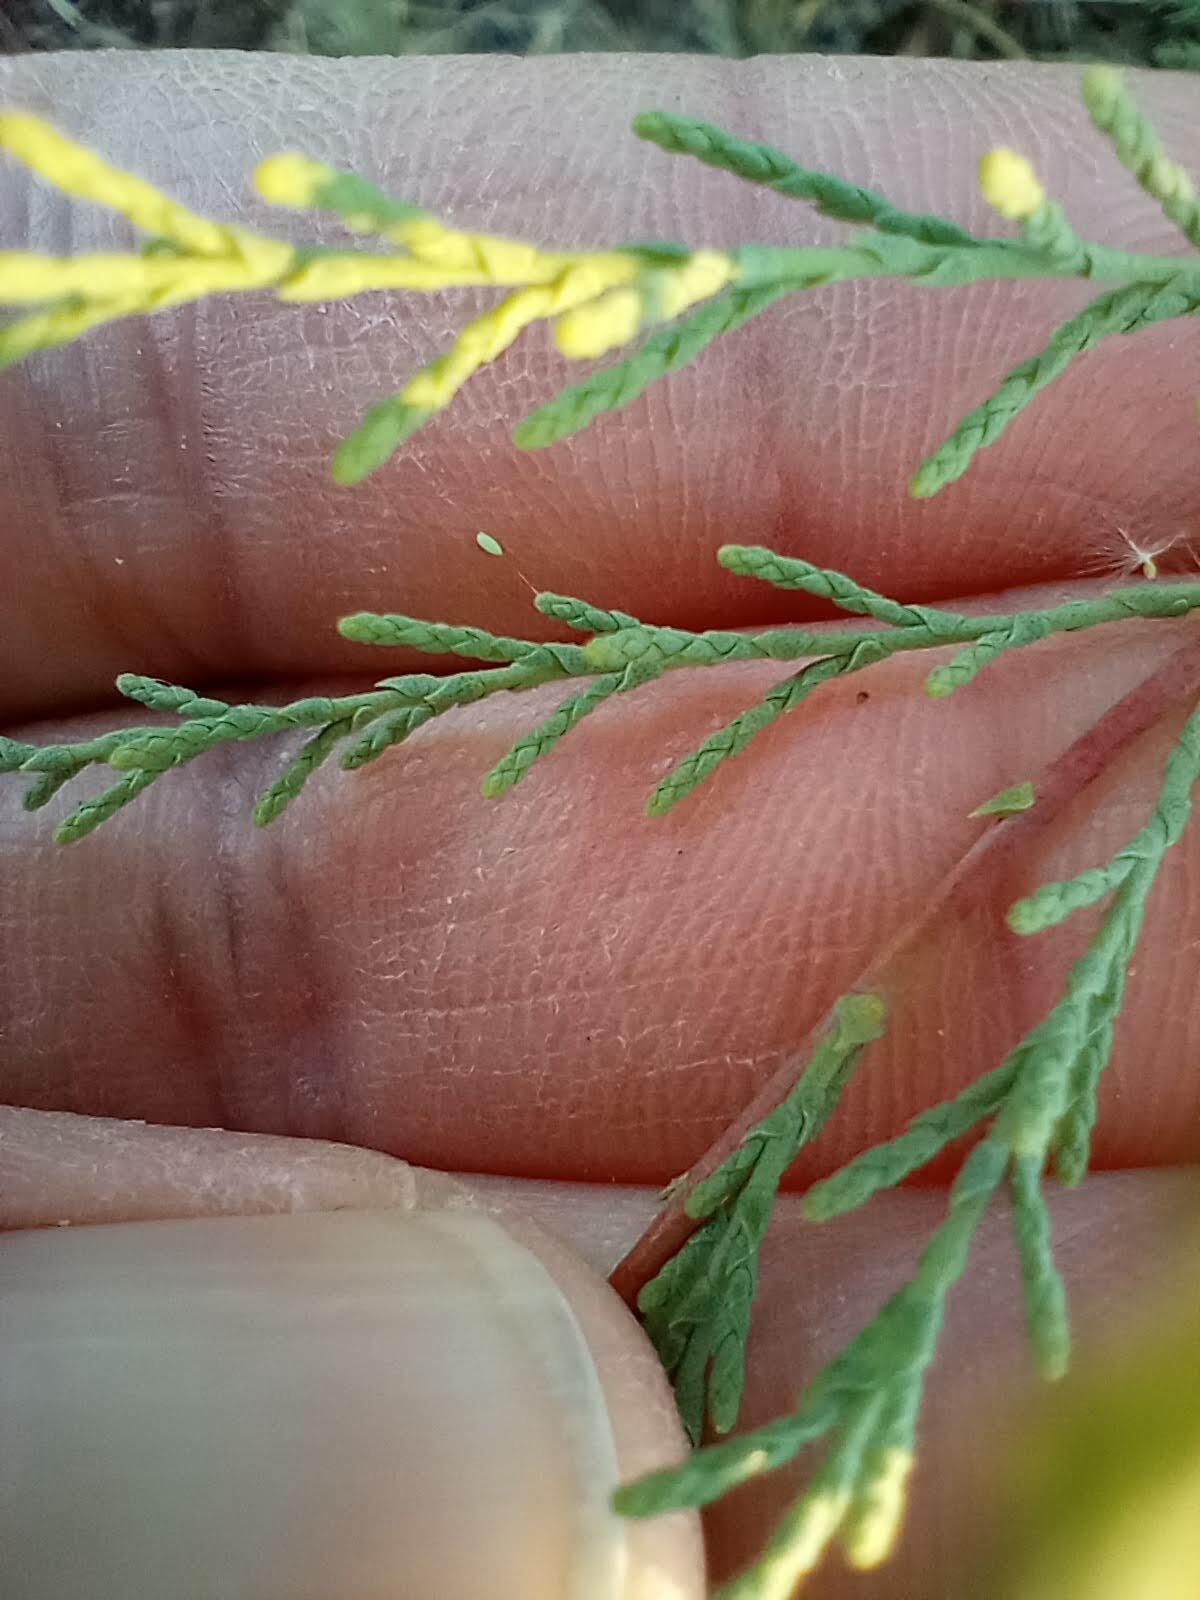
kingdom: Plantae
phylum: Tracheophyta
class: Magnoliopsida
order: Caryophyllales
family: Tamaricaceae
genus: Tamarix
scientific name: Tamarix
